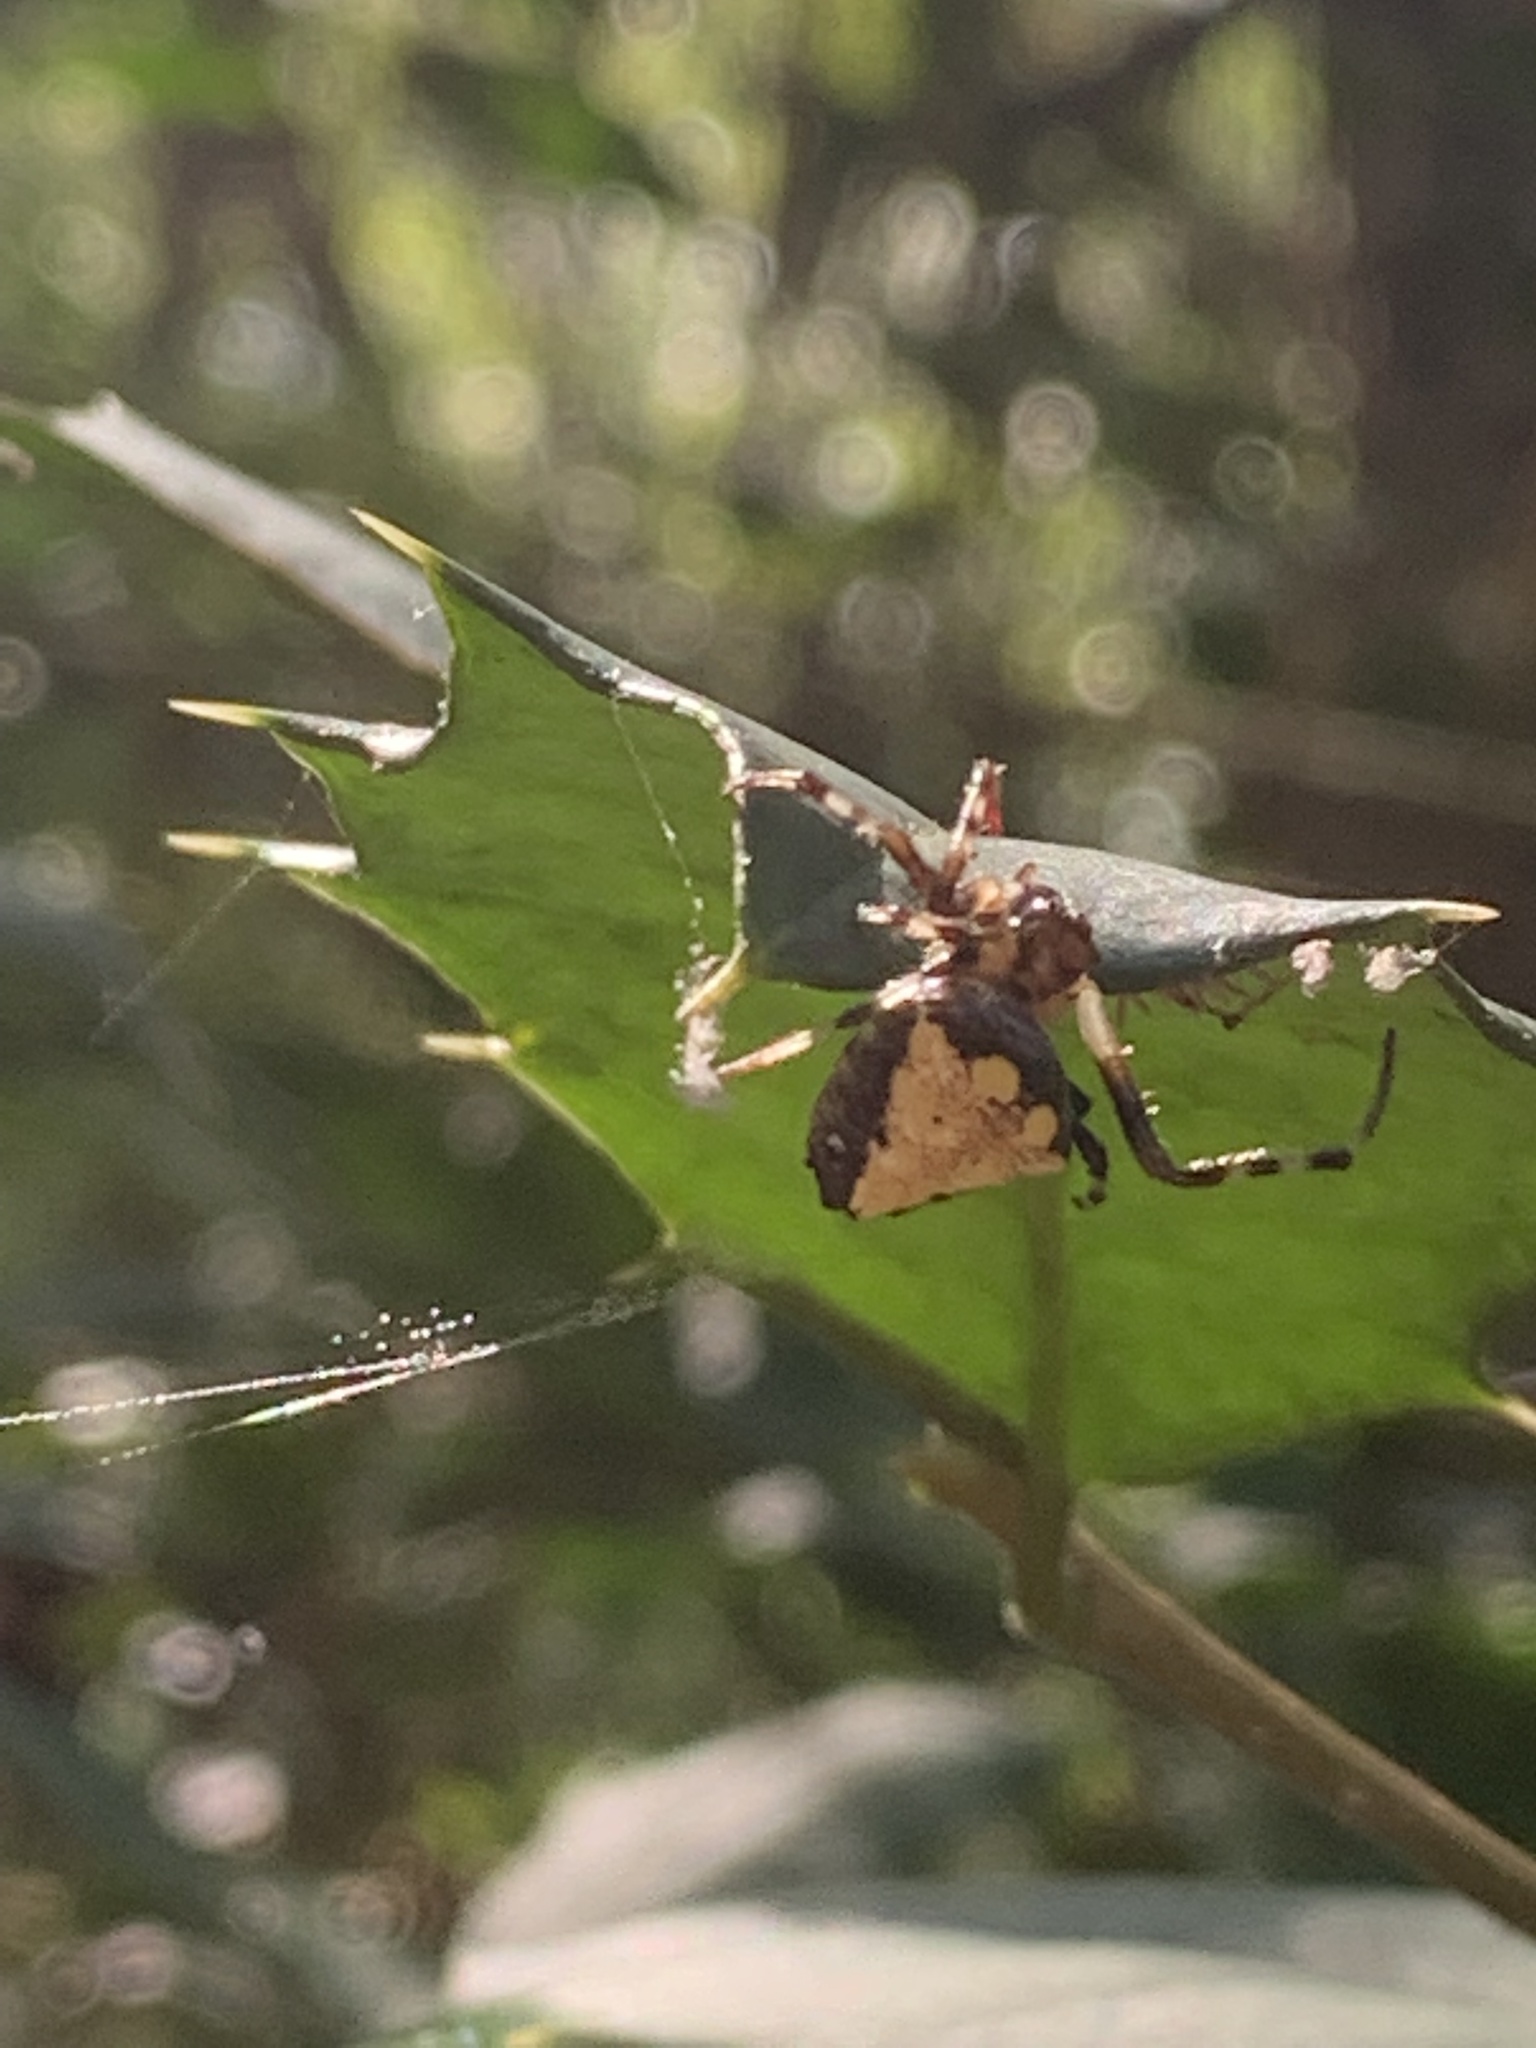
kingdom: Animalia
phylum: Arthropoda
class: Arachnida
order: Araneae
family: Araneidae
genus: Verrucosa
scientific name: Verrucosa arenata
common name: Orb weavers
